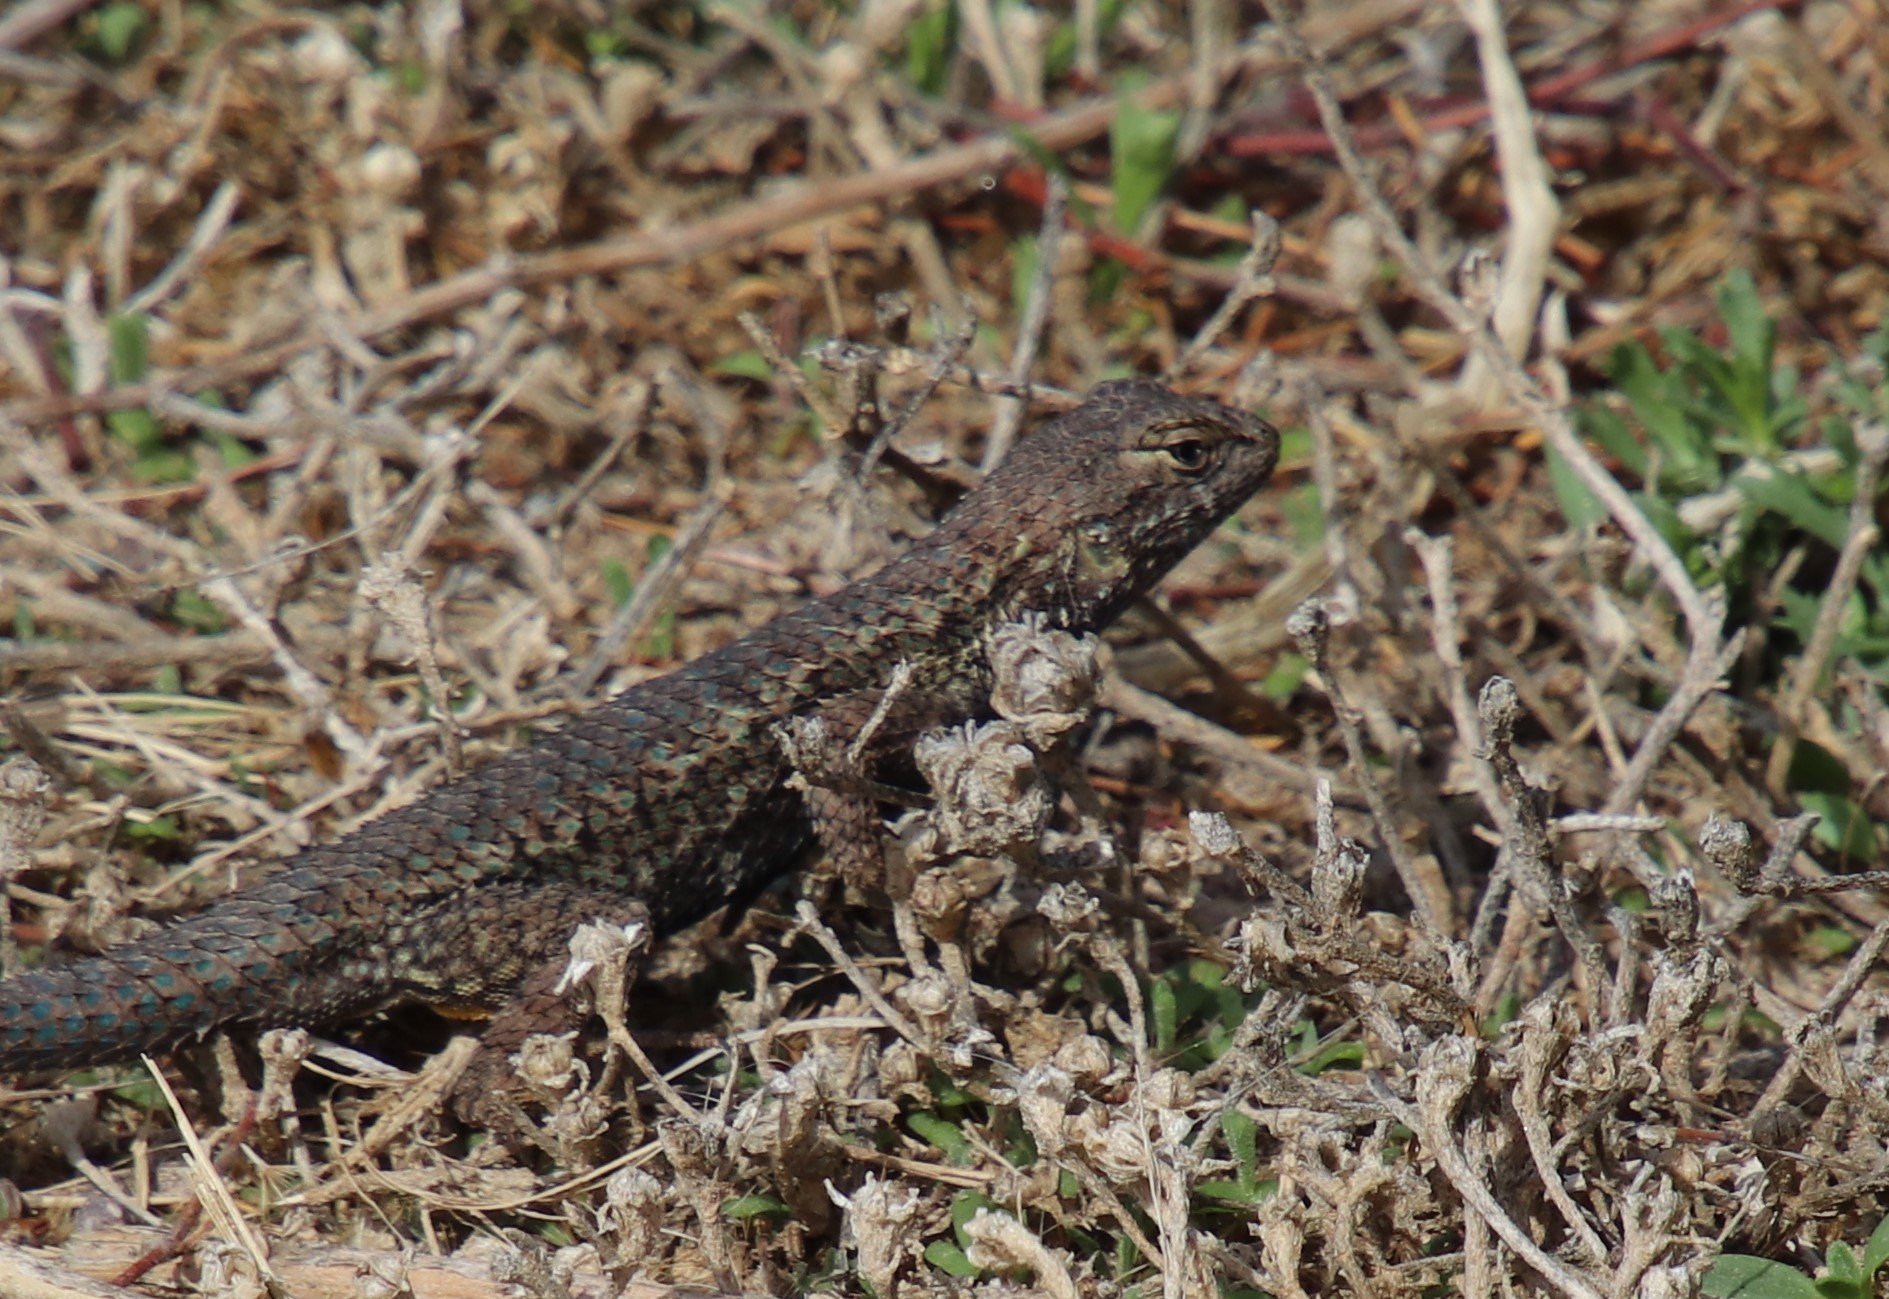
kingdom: Animalia
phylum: Chordata
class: Squamata
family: Phrynosomatidae
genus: Sceloporus
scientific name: Sceloporus occidentalis
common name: Western fence lizard
